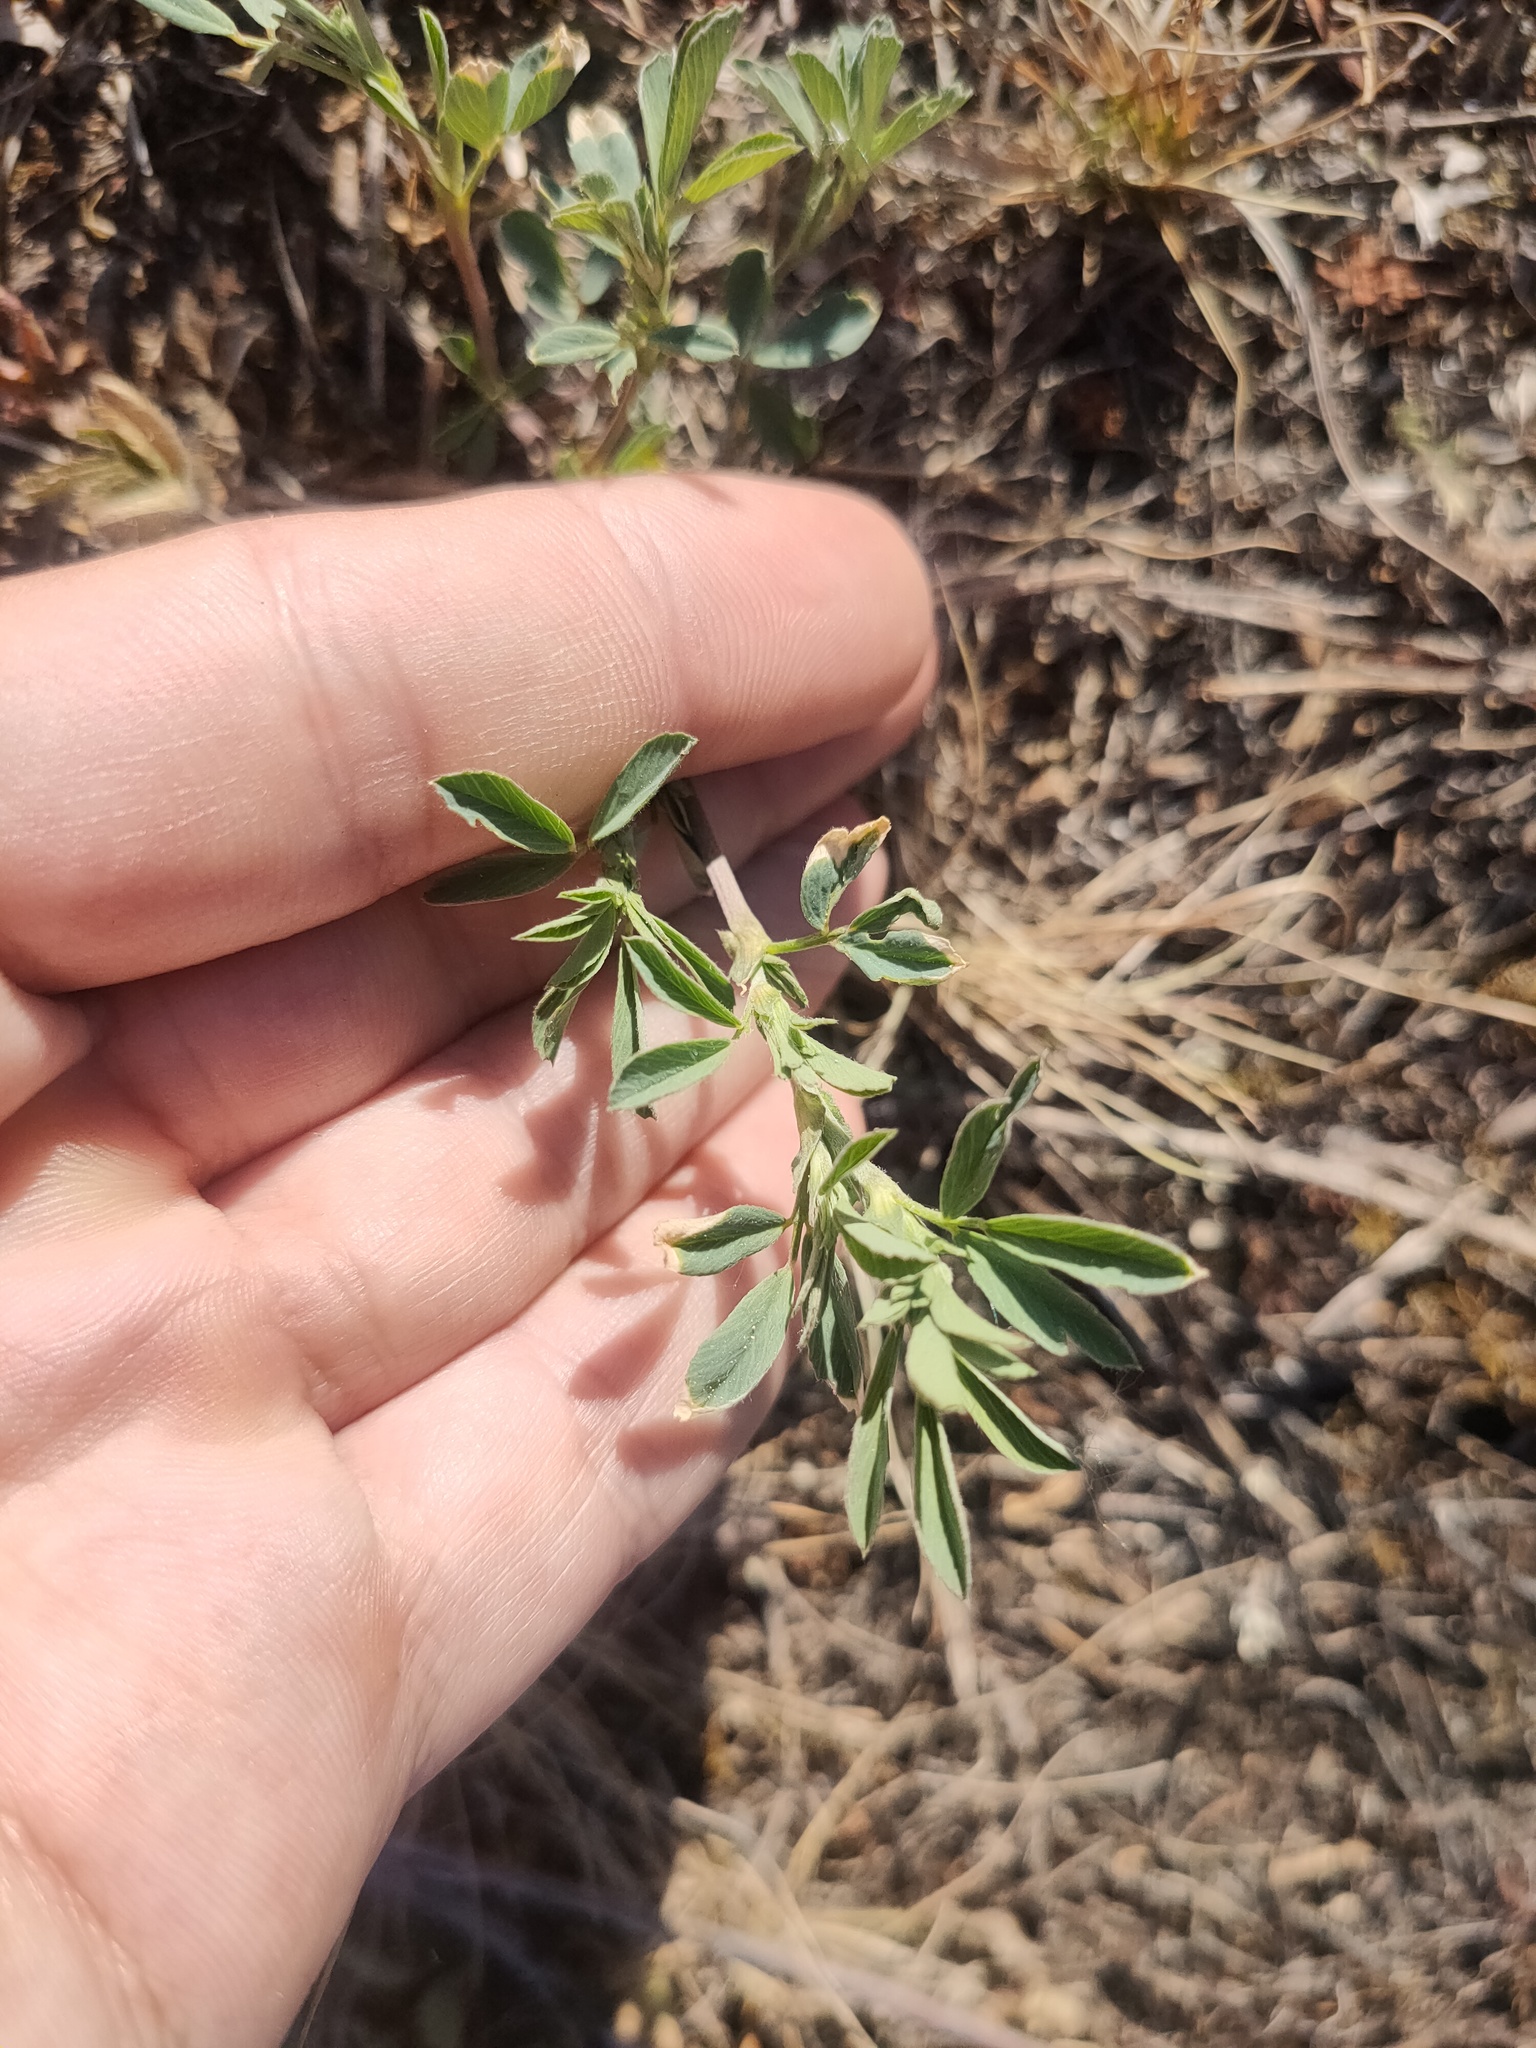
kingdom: Plantae
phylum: Tracheophyta
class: Magnoliopsida
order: Fabales
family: Fabaceae
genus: Medicago
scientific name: Medicago
